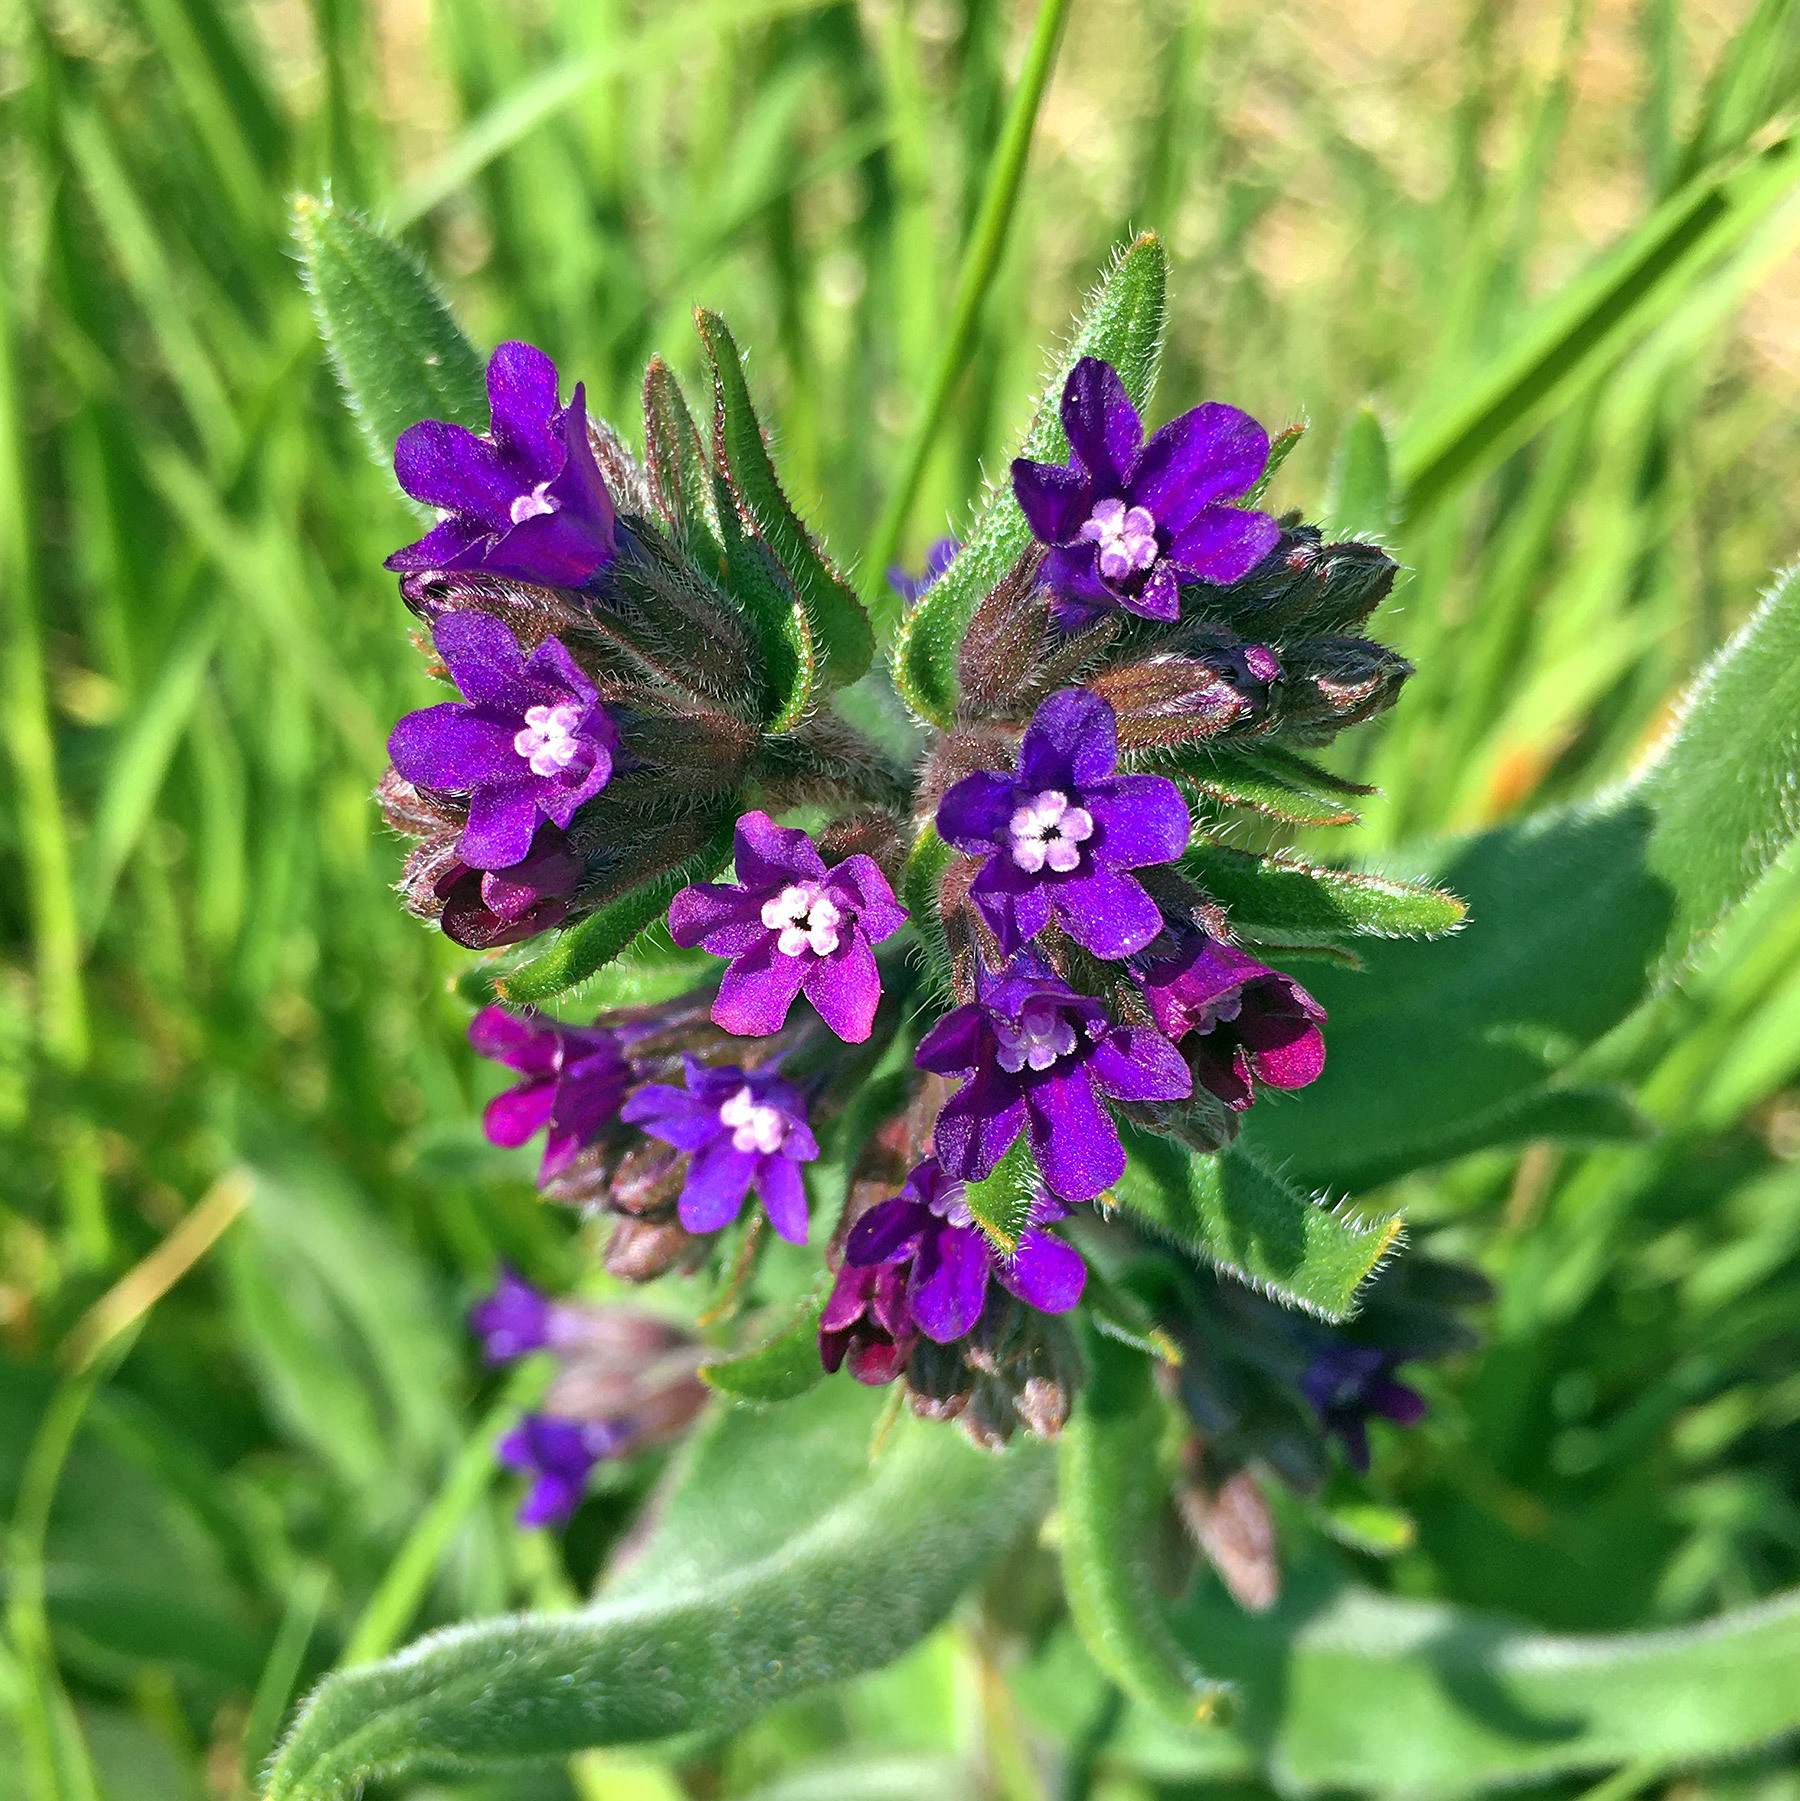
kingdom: Plantae
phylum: Tracheophyta
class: Magnoliopsida
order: Boraginales
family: Boraginaceae
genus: Anchusa
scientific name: Anchusa officinalis
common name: Alkanet
